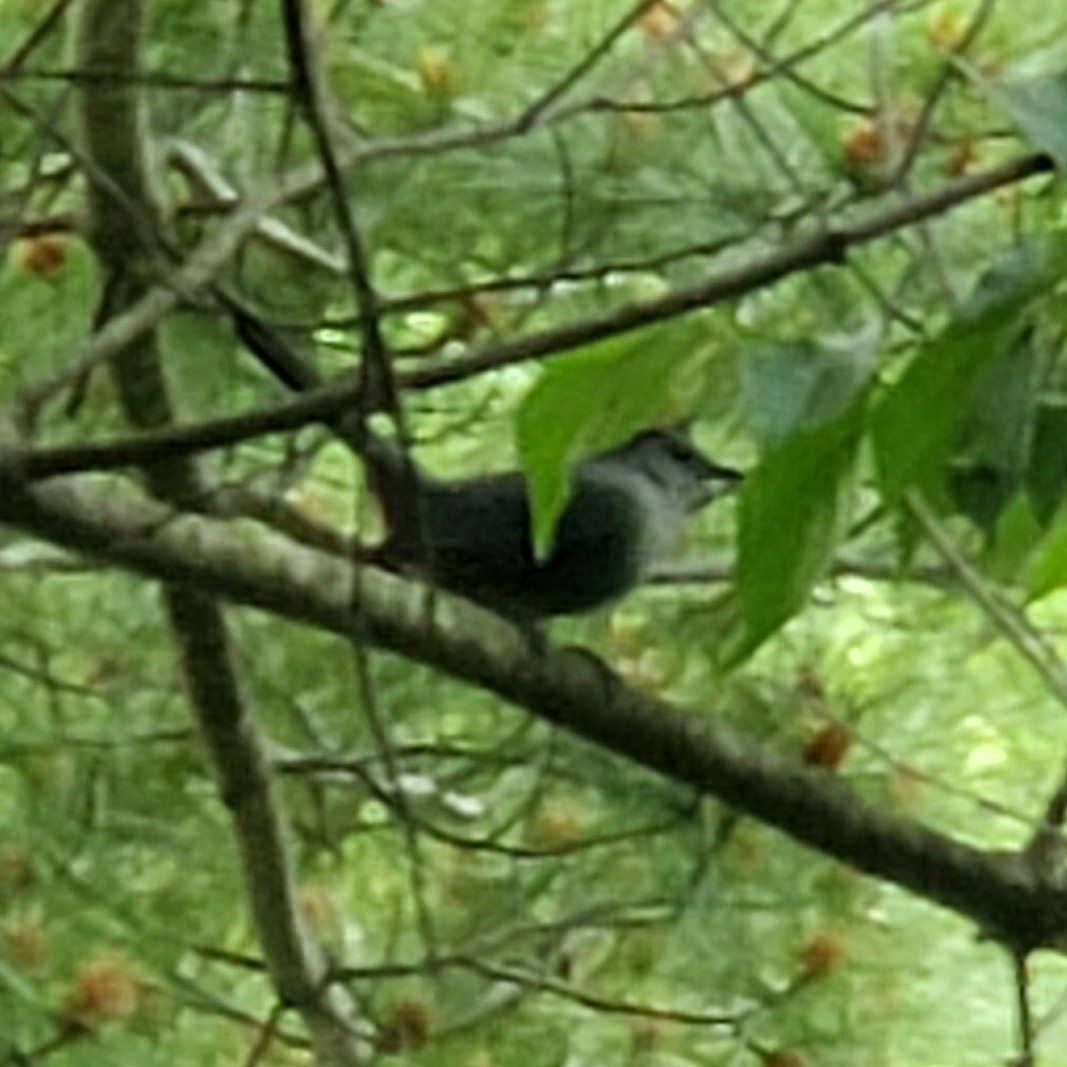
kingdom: Animalia
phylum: Chordata
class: Aves
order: Passeriformes
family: Mimidae
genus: Dumetella
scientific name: Dumetella carolinensis
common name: Gray catbird
